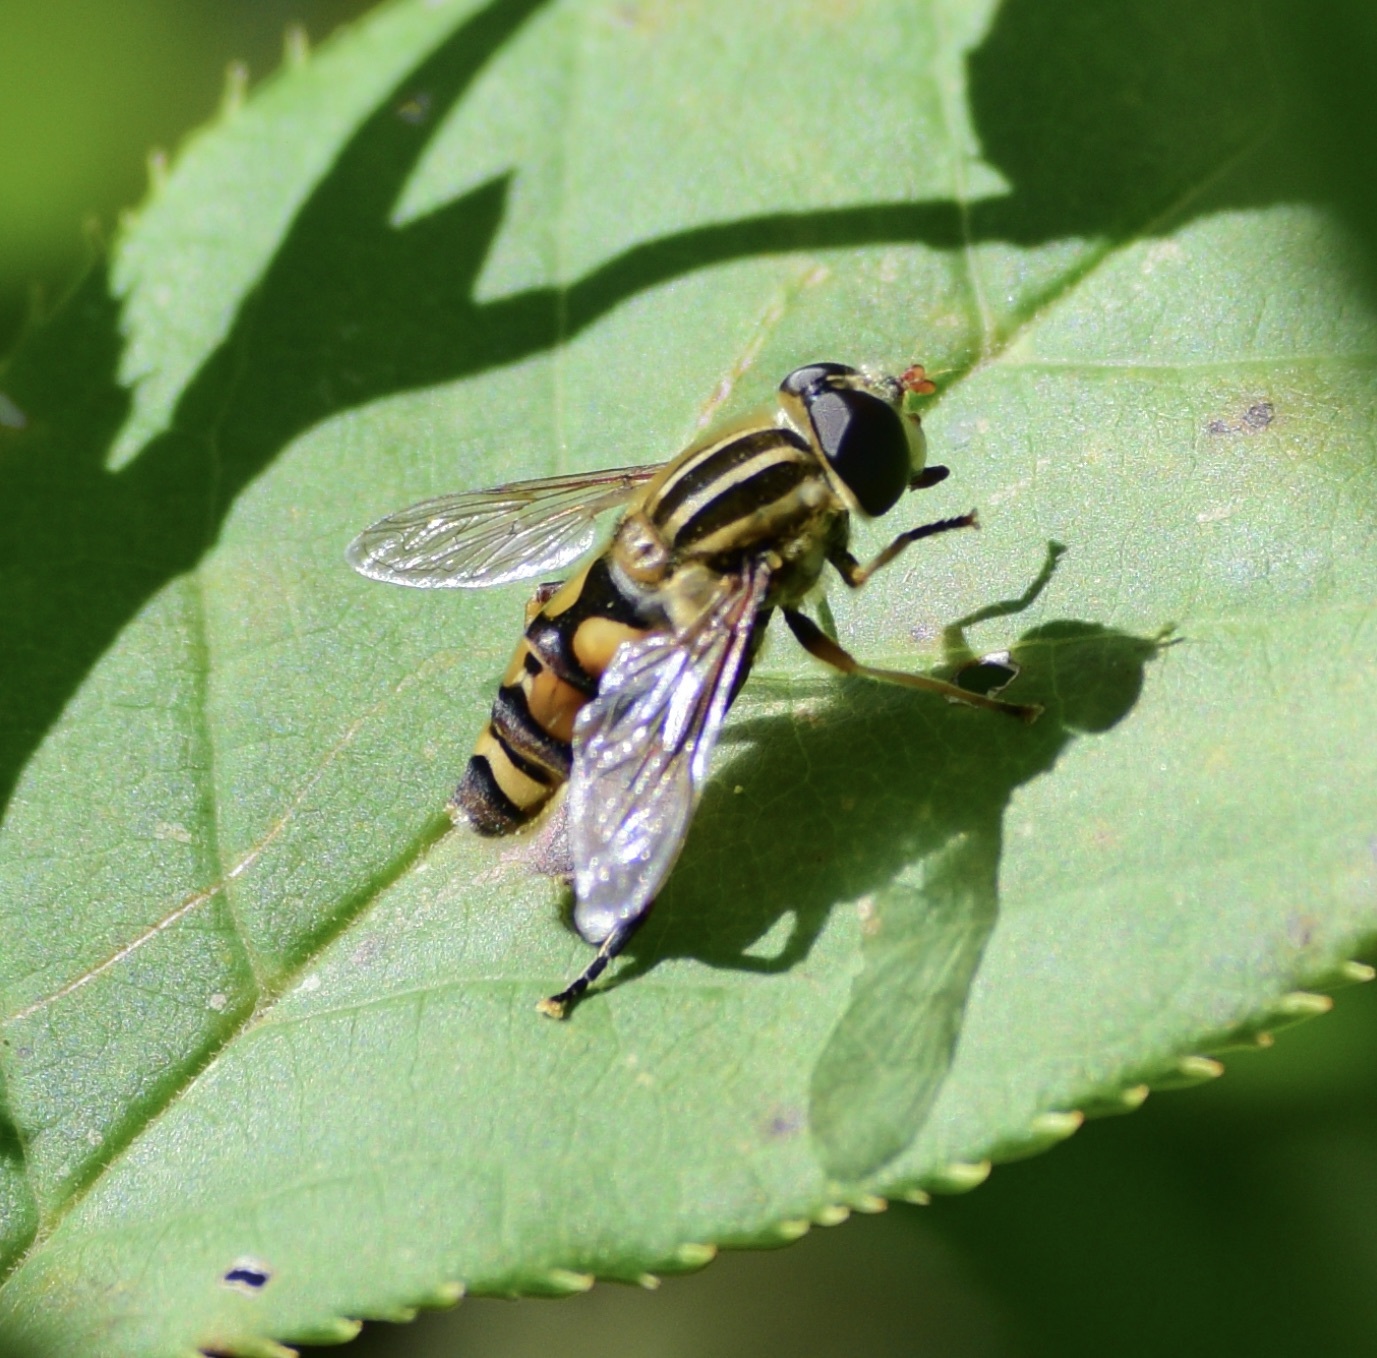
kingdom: Animalia
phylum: Arthropoda
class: Insecta
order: Diptera
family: Syrphidae
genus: Helophilus
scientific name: Helophilus fasciatus
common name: Narrow-headed marsh fly
